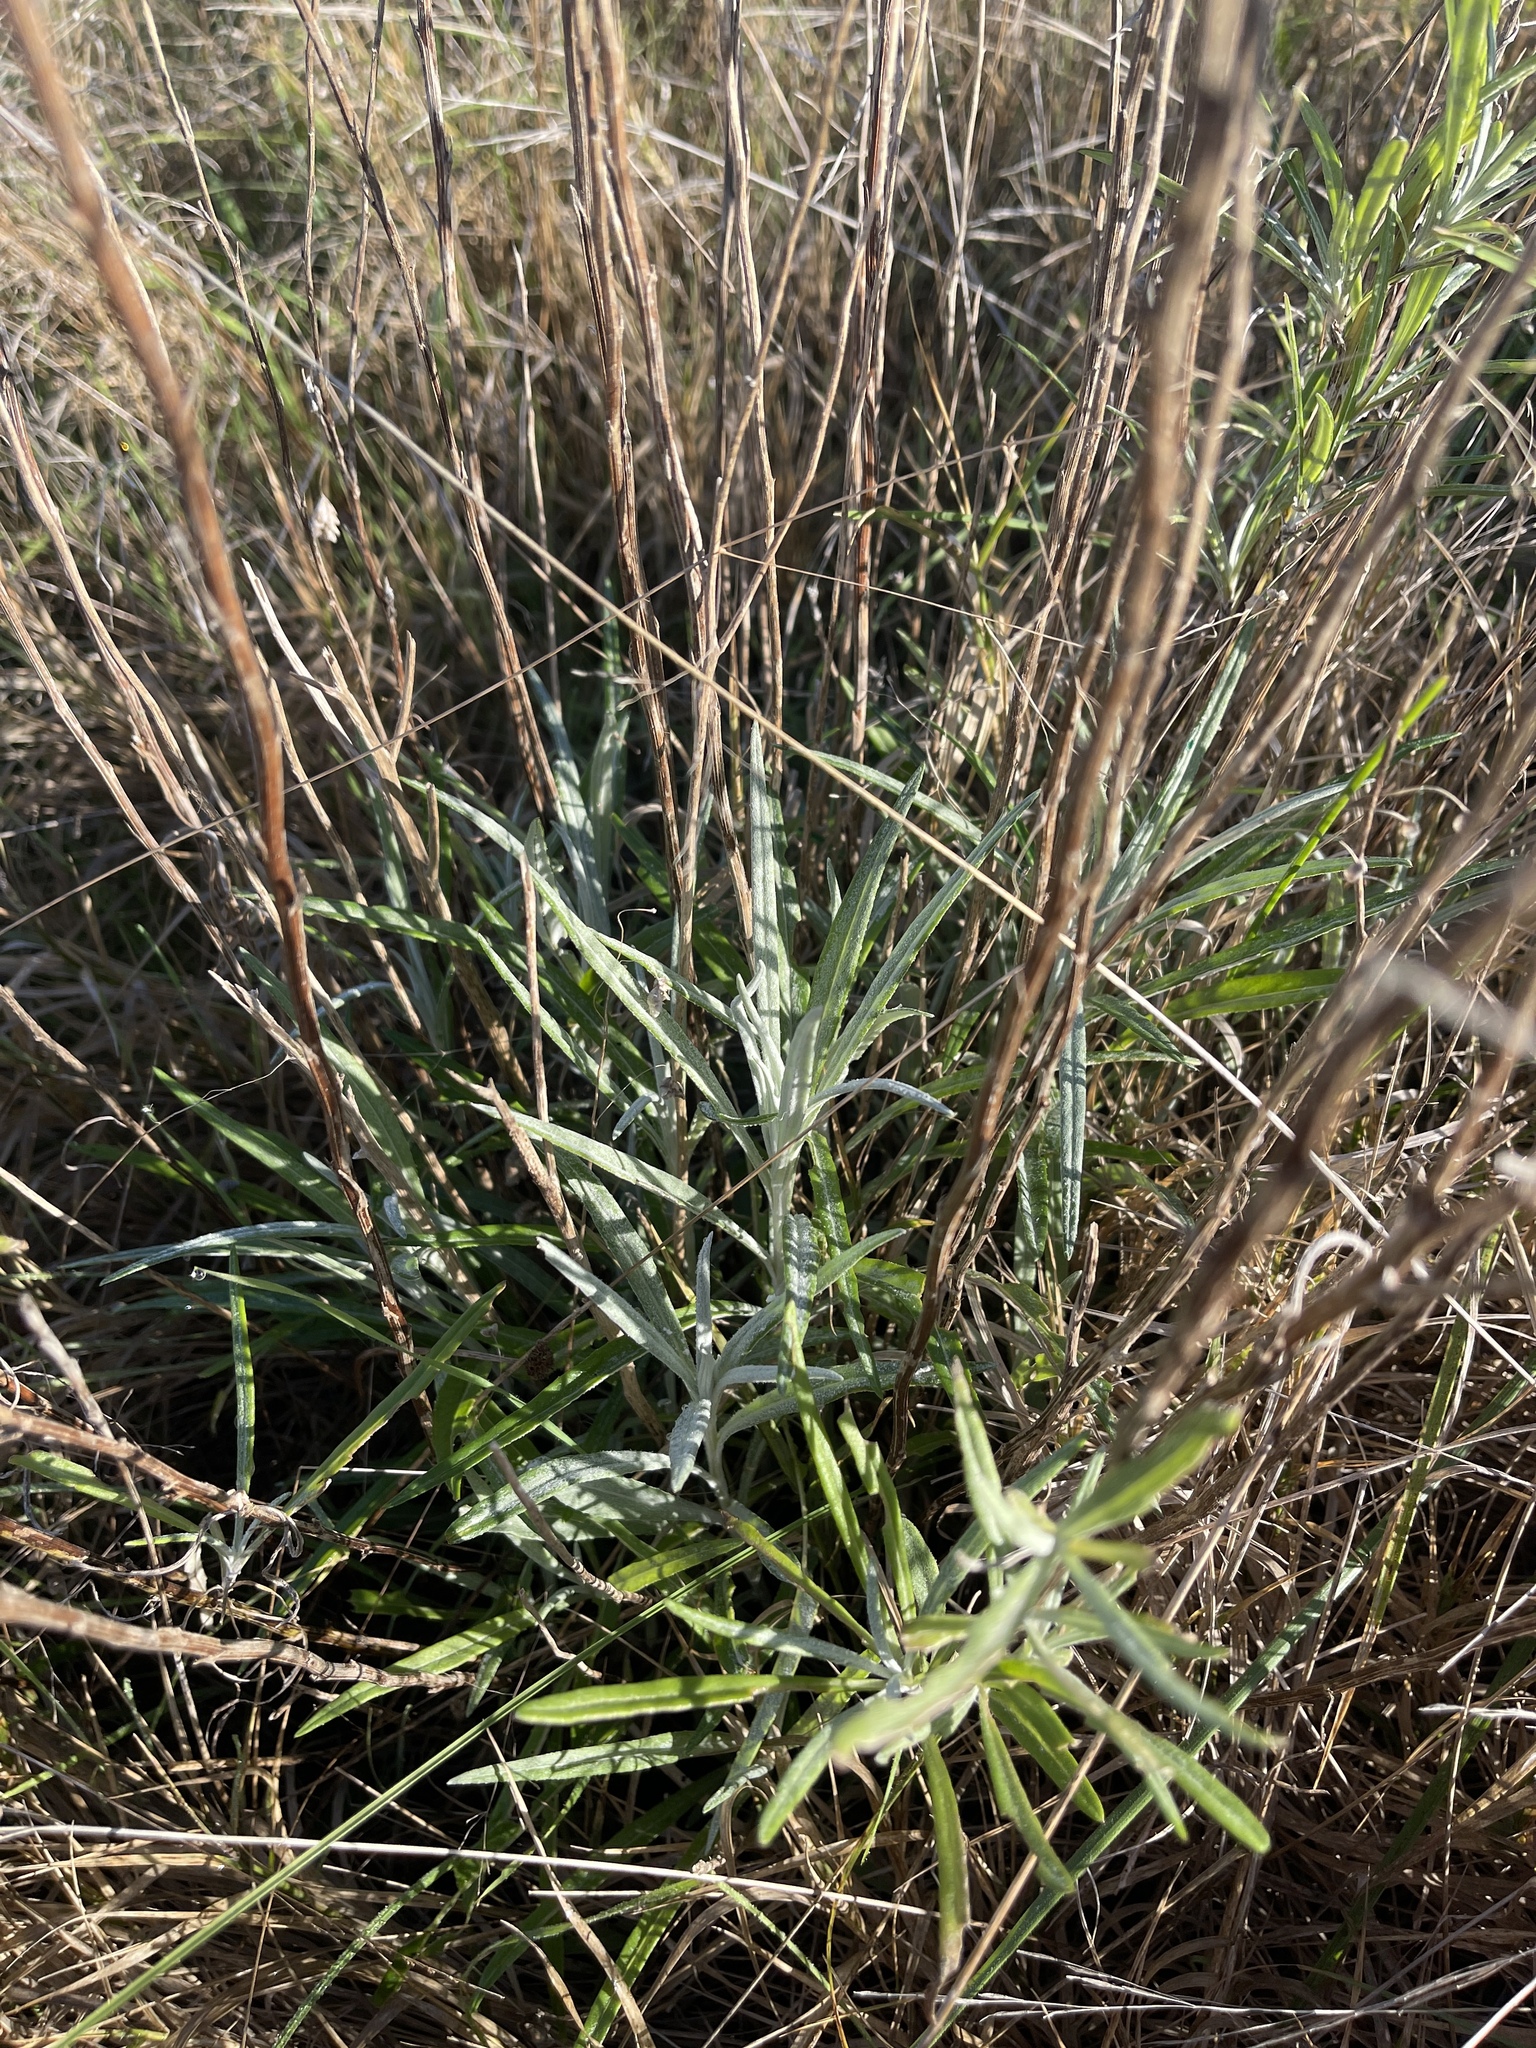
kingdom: Plantae
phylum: Tracheophyta
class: Magnoliopsida
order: Asterales
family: Asteraceae
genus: Senecio
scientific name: Senecio quadridentatus
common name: Cotton fireweed
